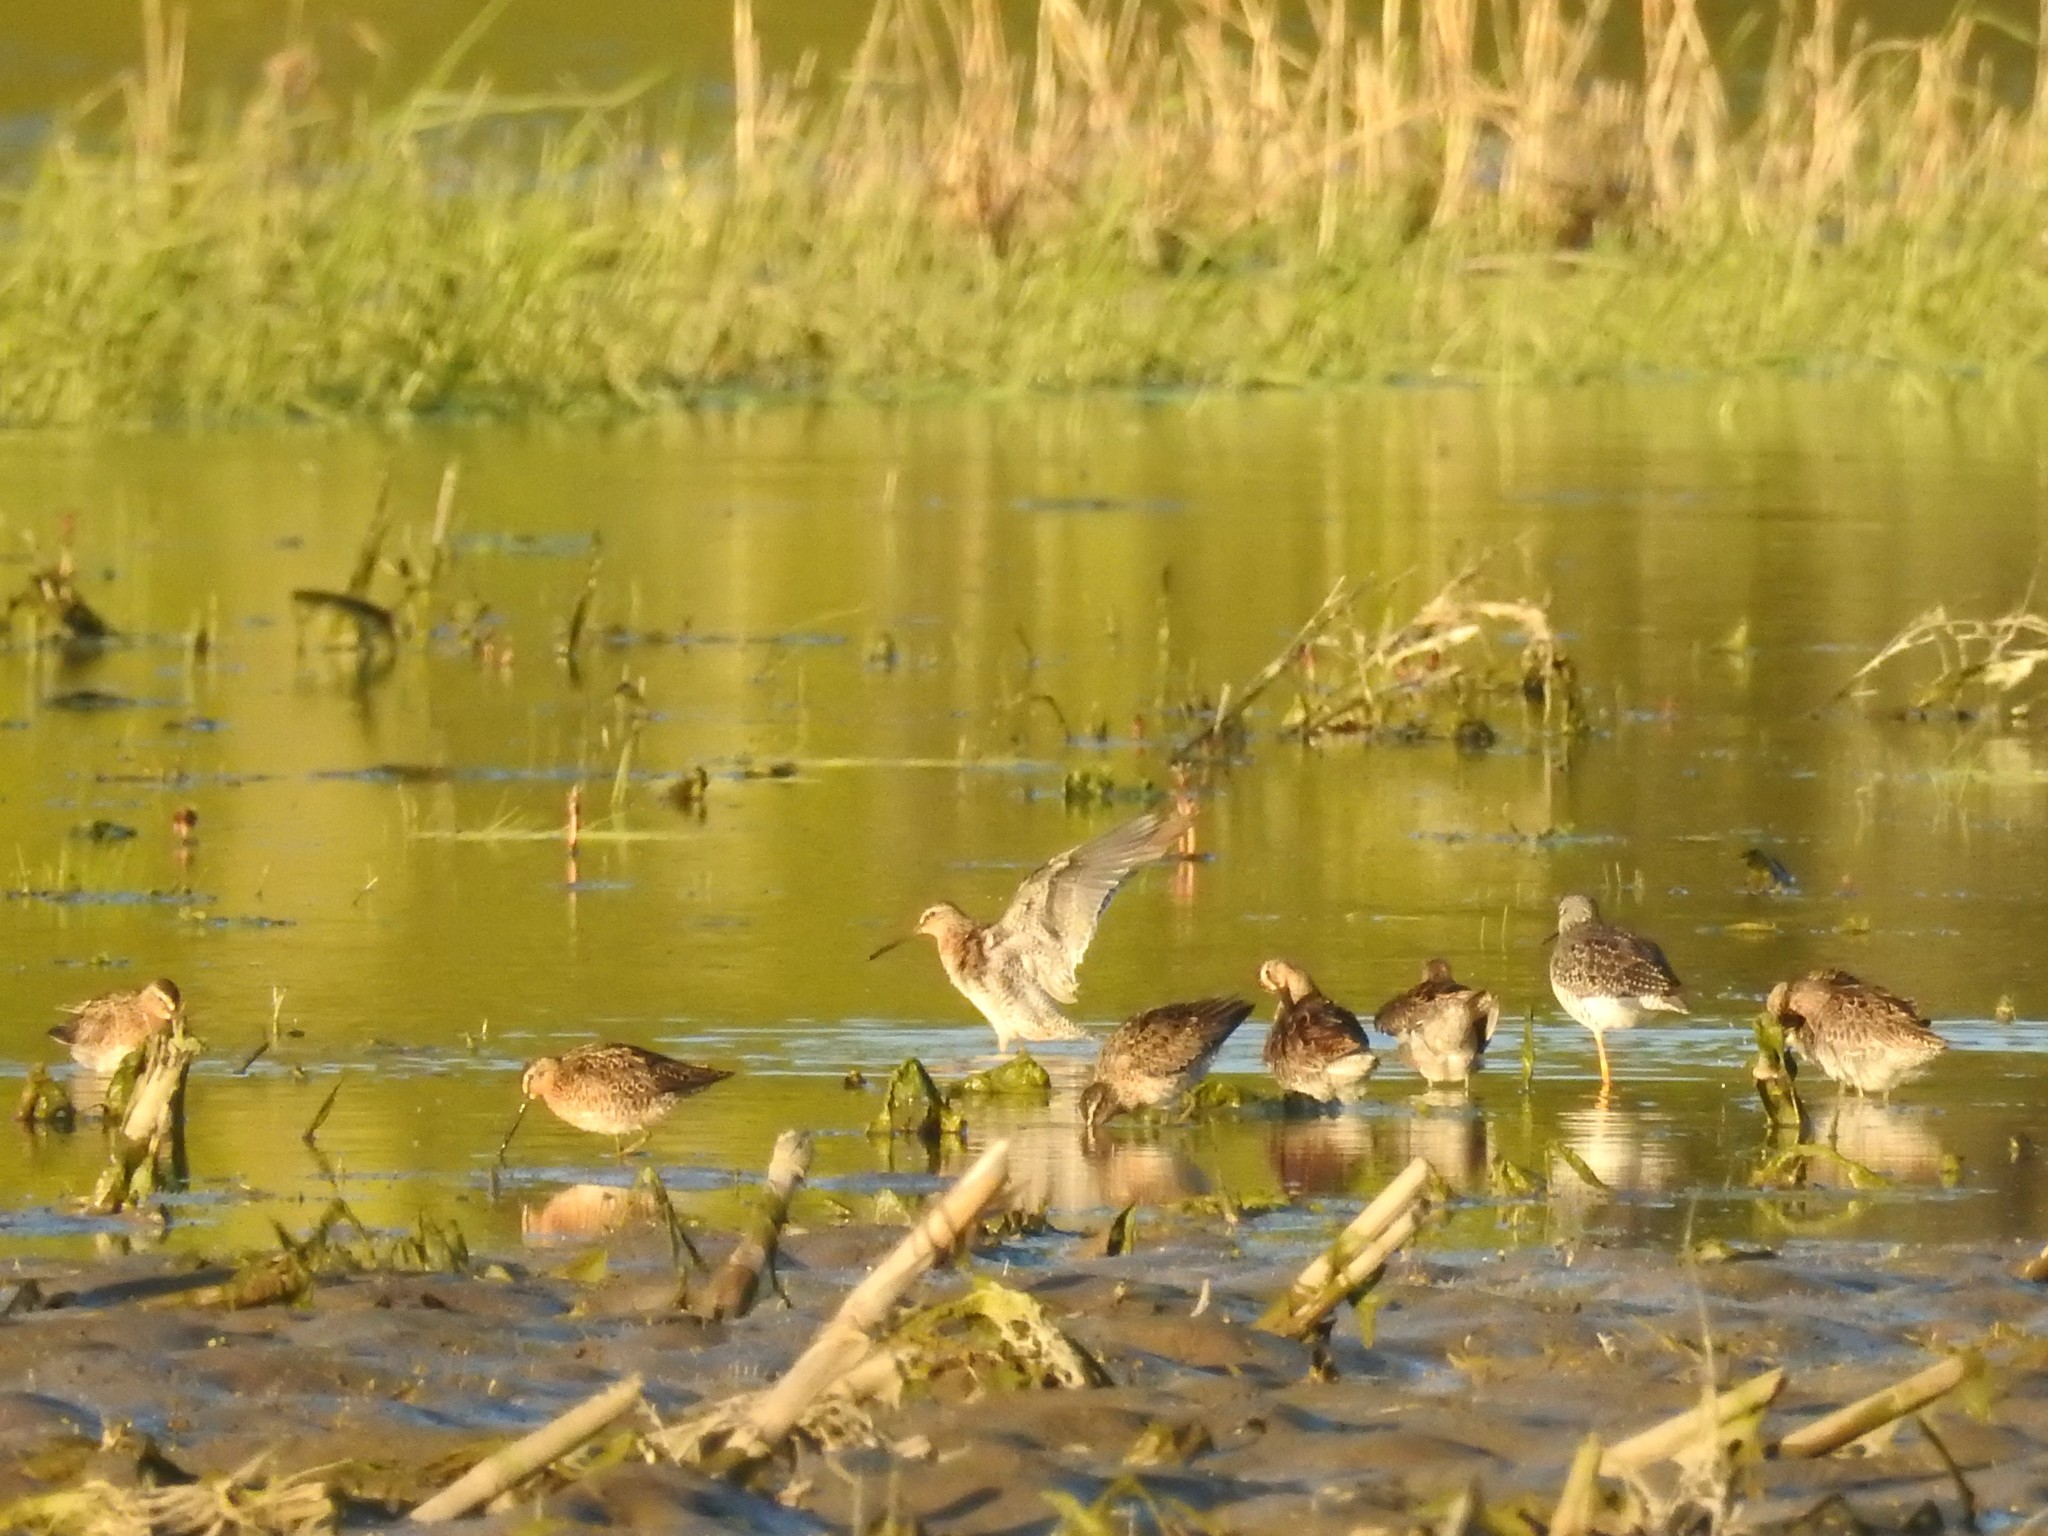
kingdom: Animalia
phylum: Chordata
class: Aves
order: Charadriiformes
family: Scolopacidae
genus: Limnodromus
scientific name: Limnodromus griseus
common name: Short-billed dowitcher
